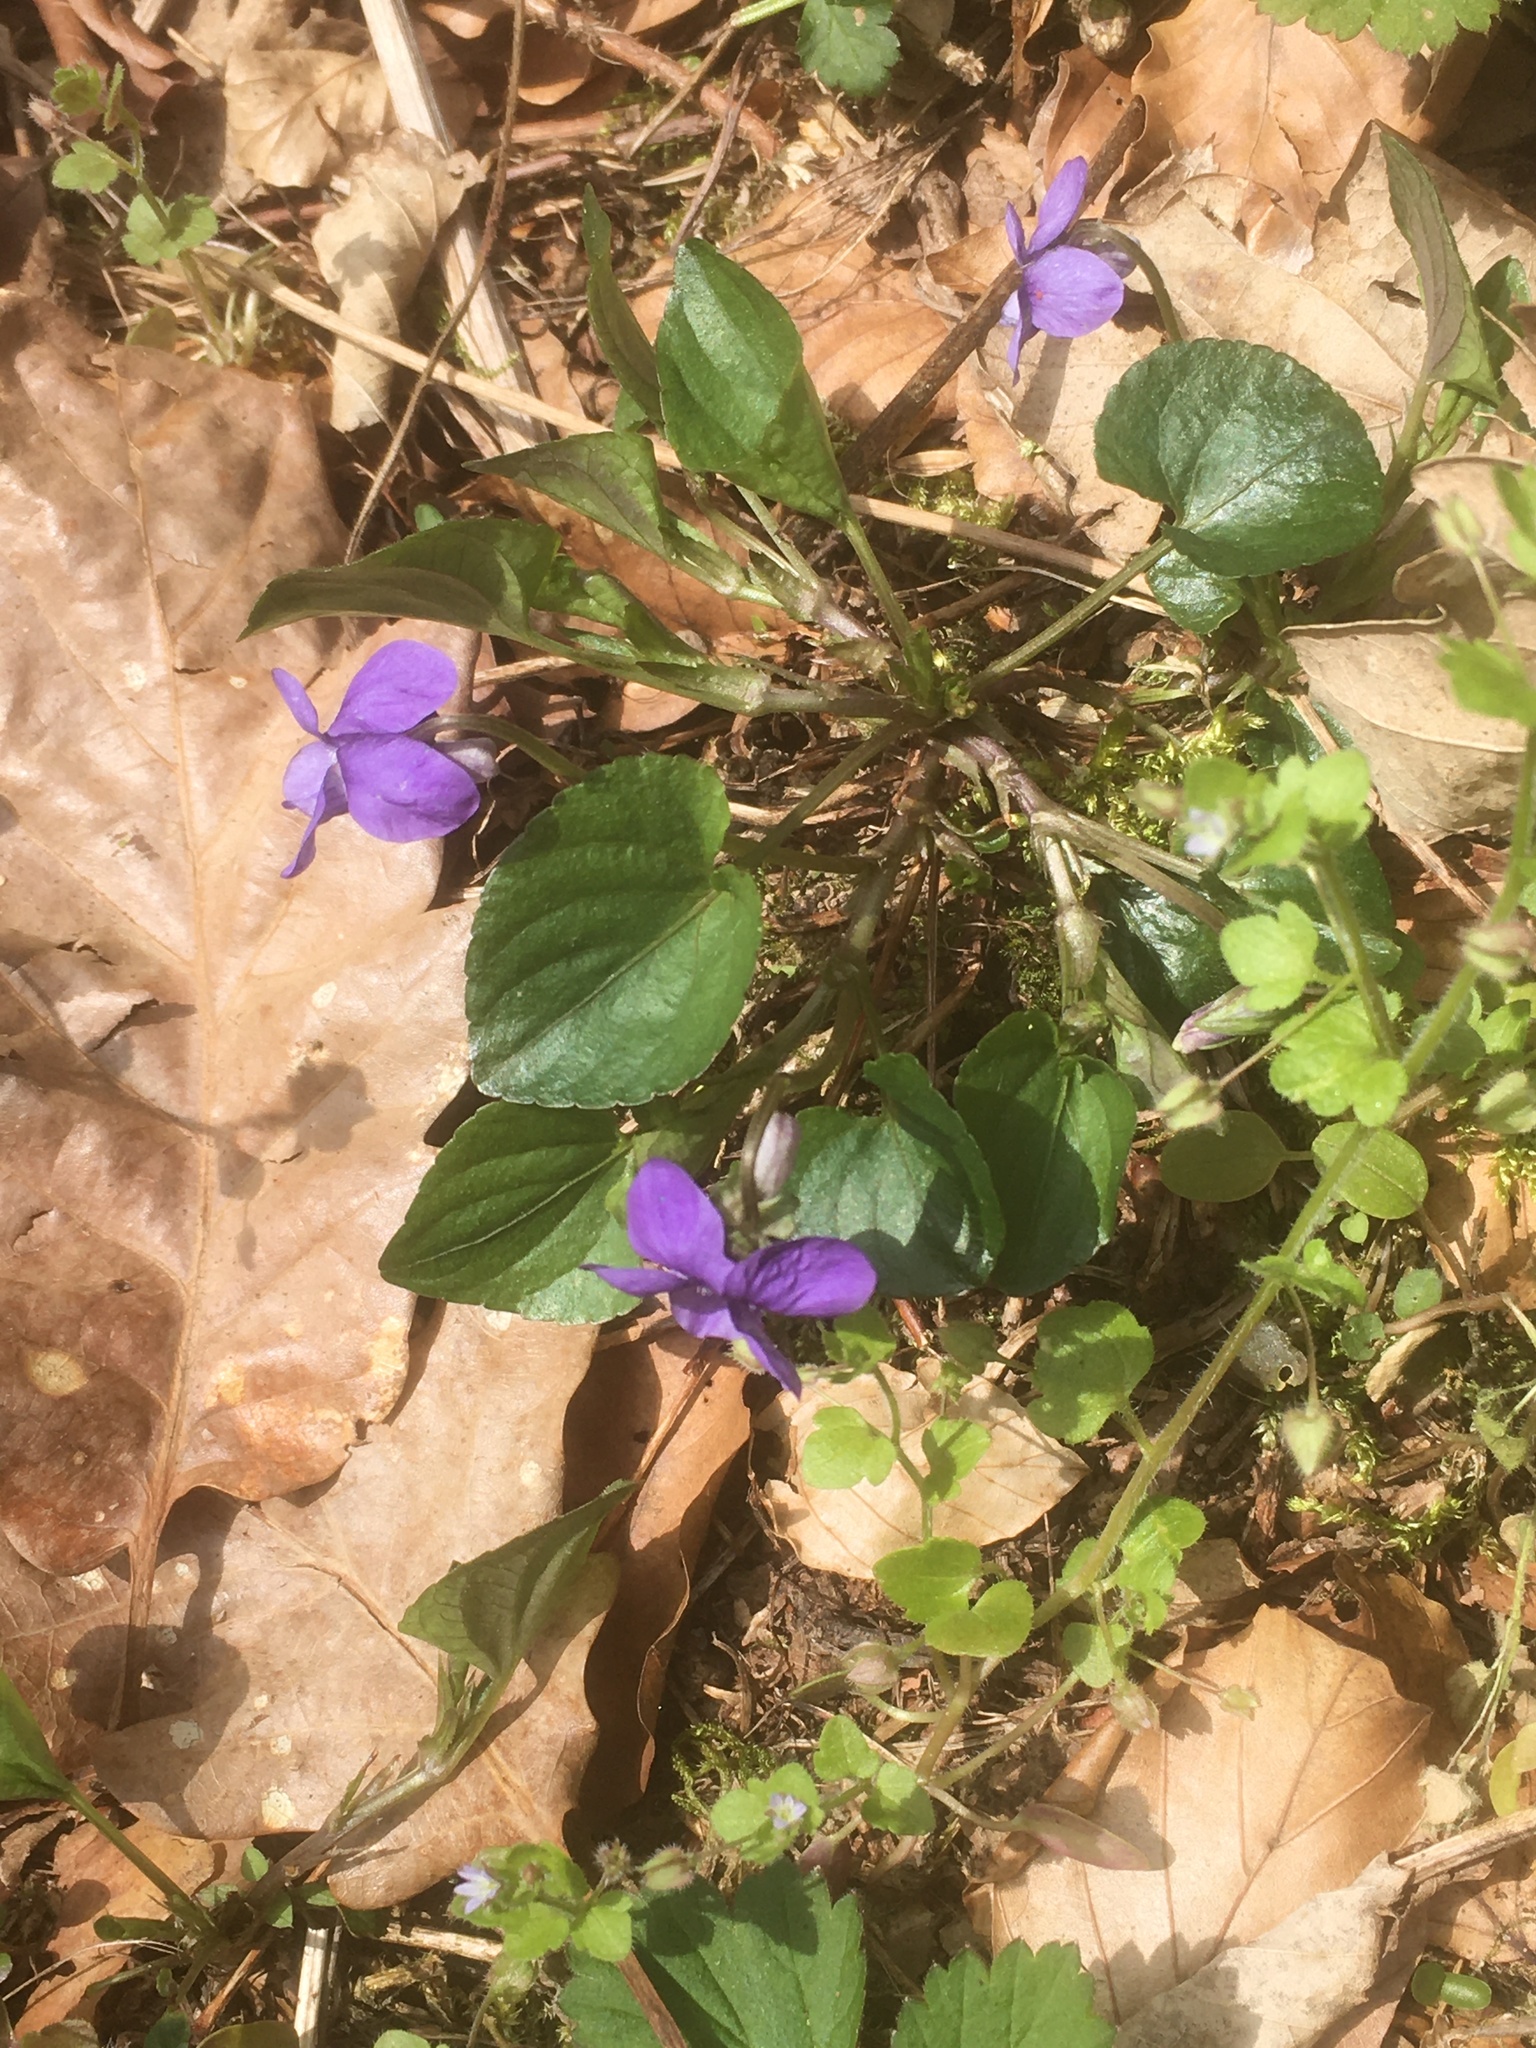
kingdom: Plantae
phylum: Tracheophyta
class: Magnoliopsida
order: Malpighiales
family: Violaceae
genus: Viola
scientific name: Viola riviniana
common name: Common dog-violet
